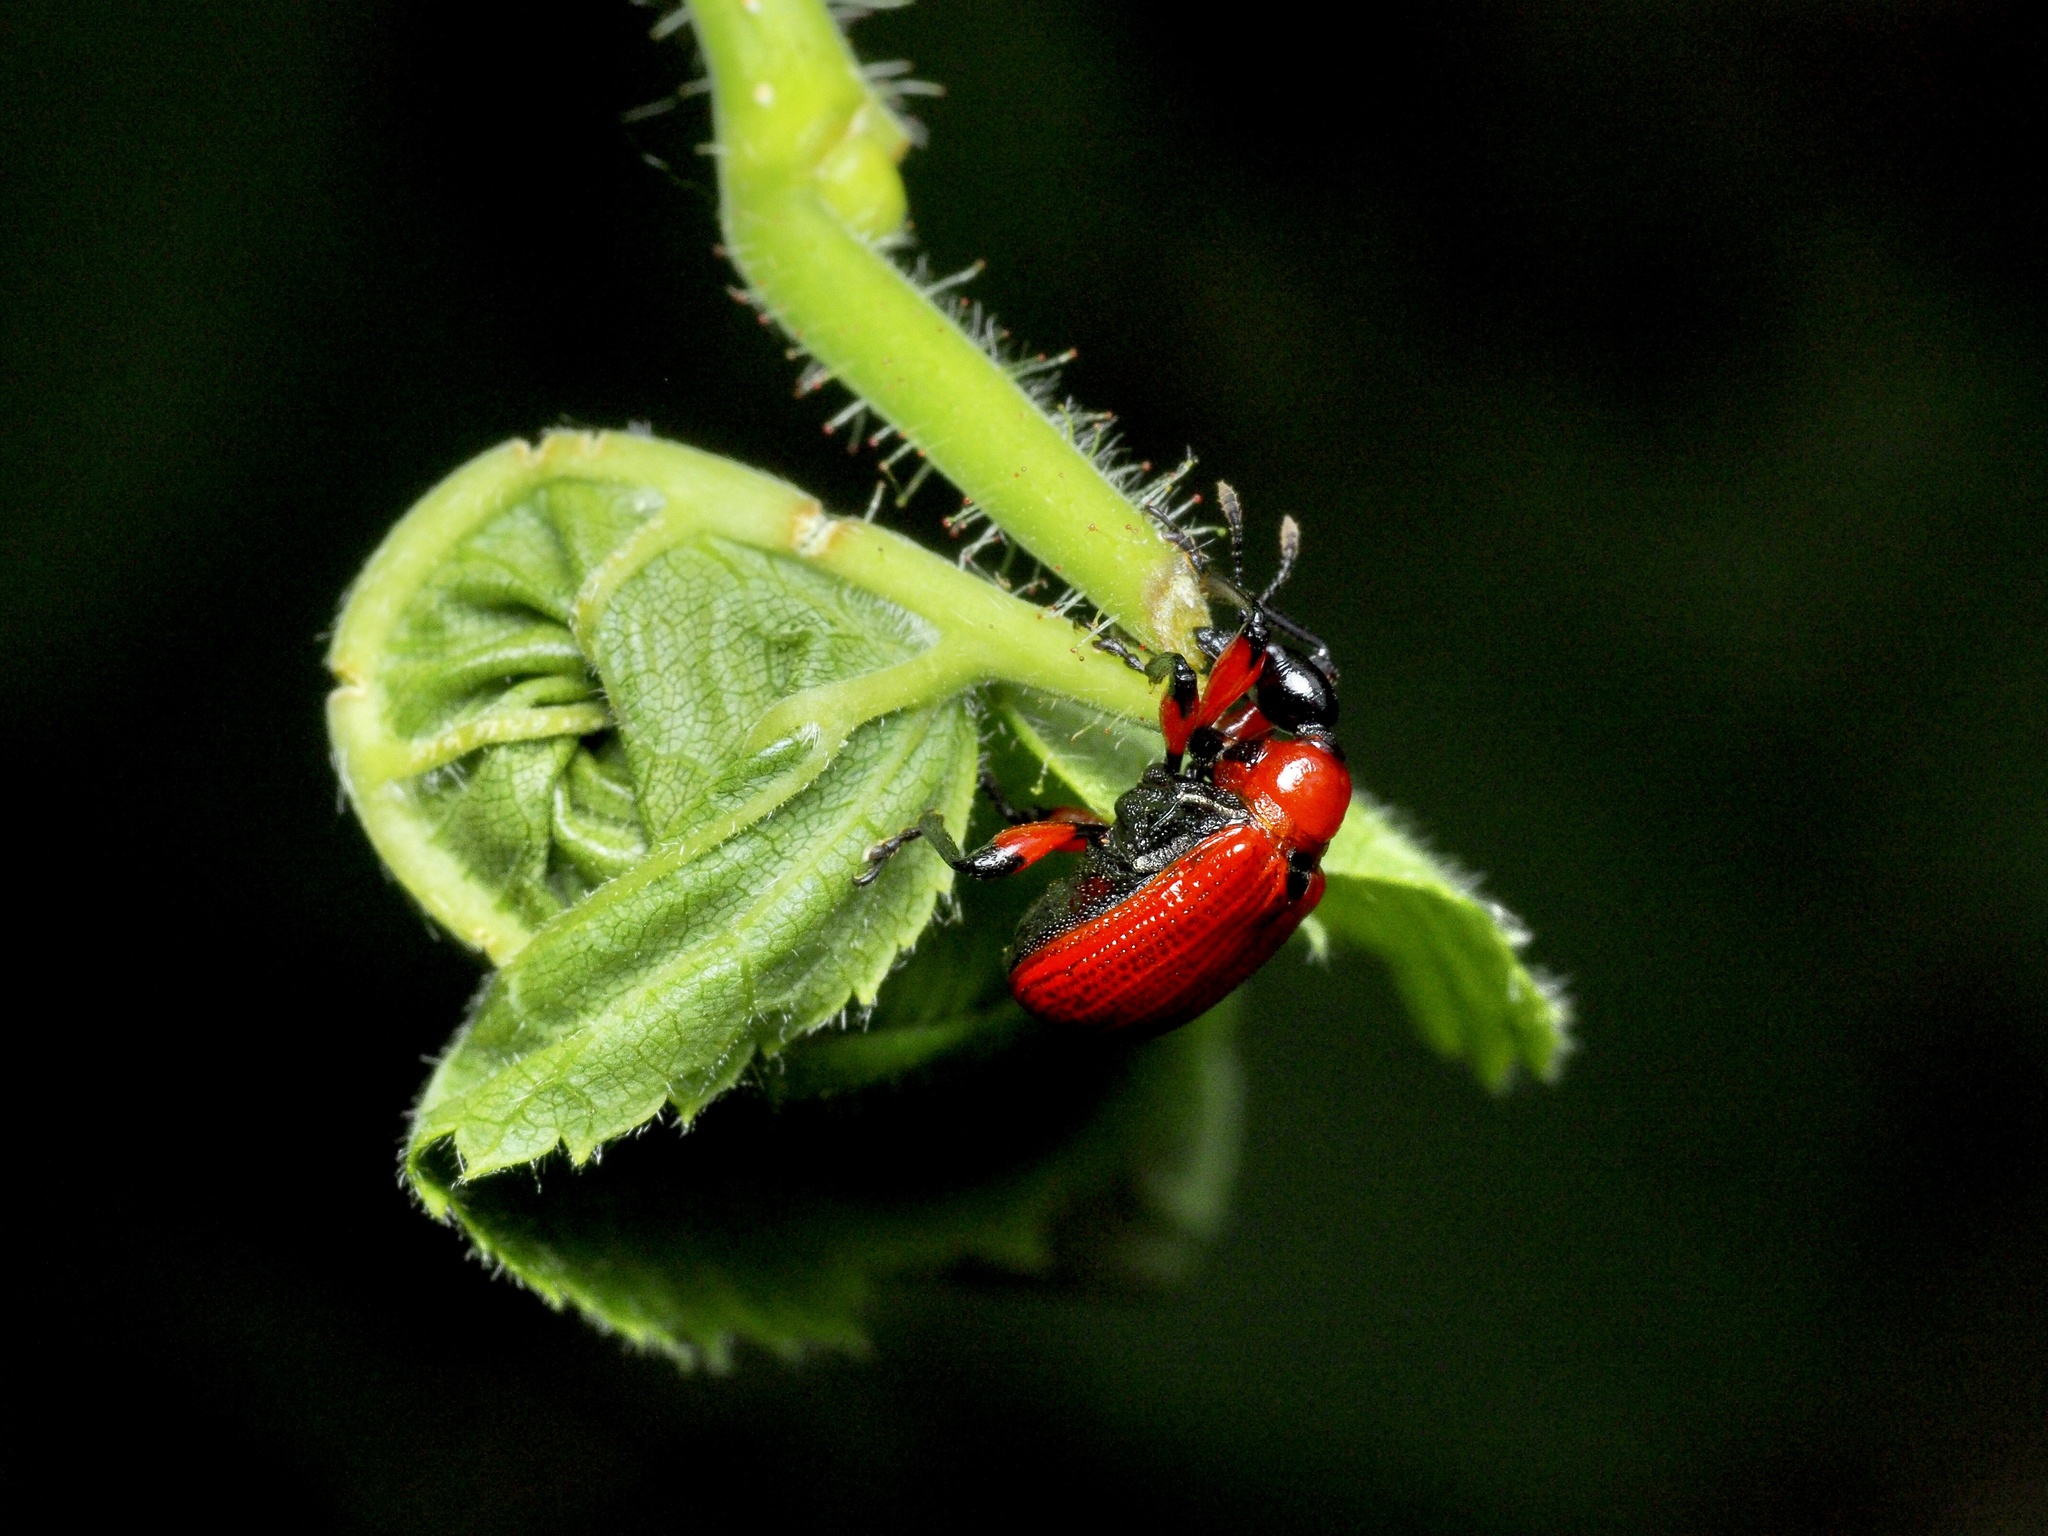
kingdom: Animalia
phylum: Arthropoda
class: Insecta
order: Coleoptera
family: Attelabidae
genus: Apoderus
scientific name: Apoderus coryli
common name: Hazel leaf roller
